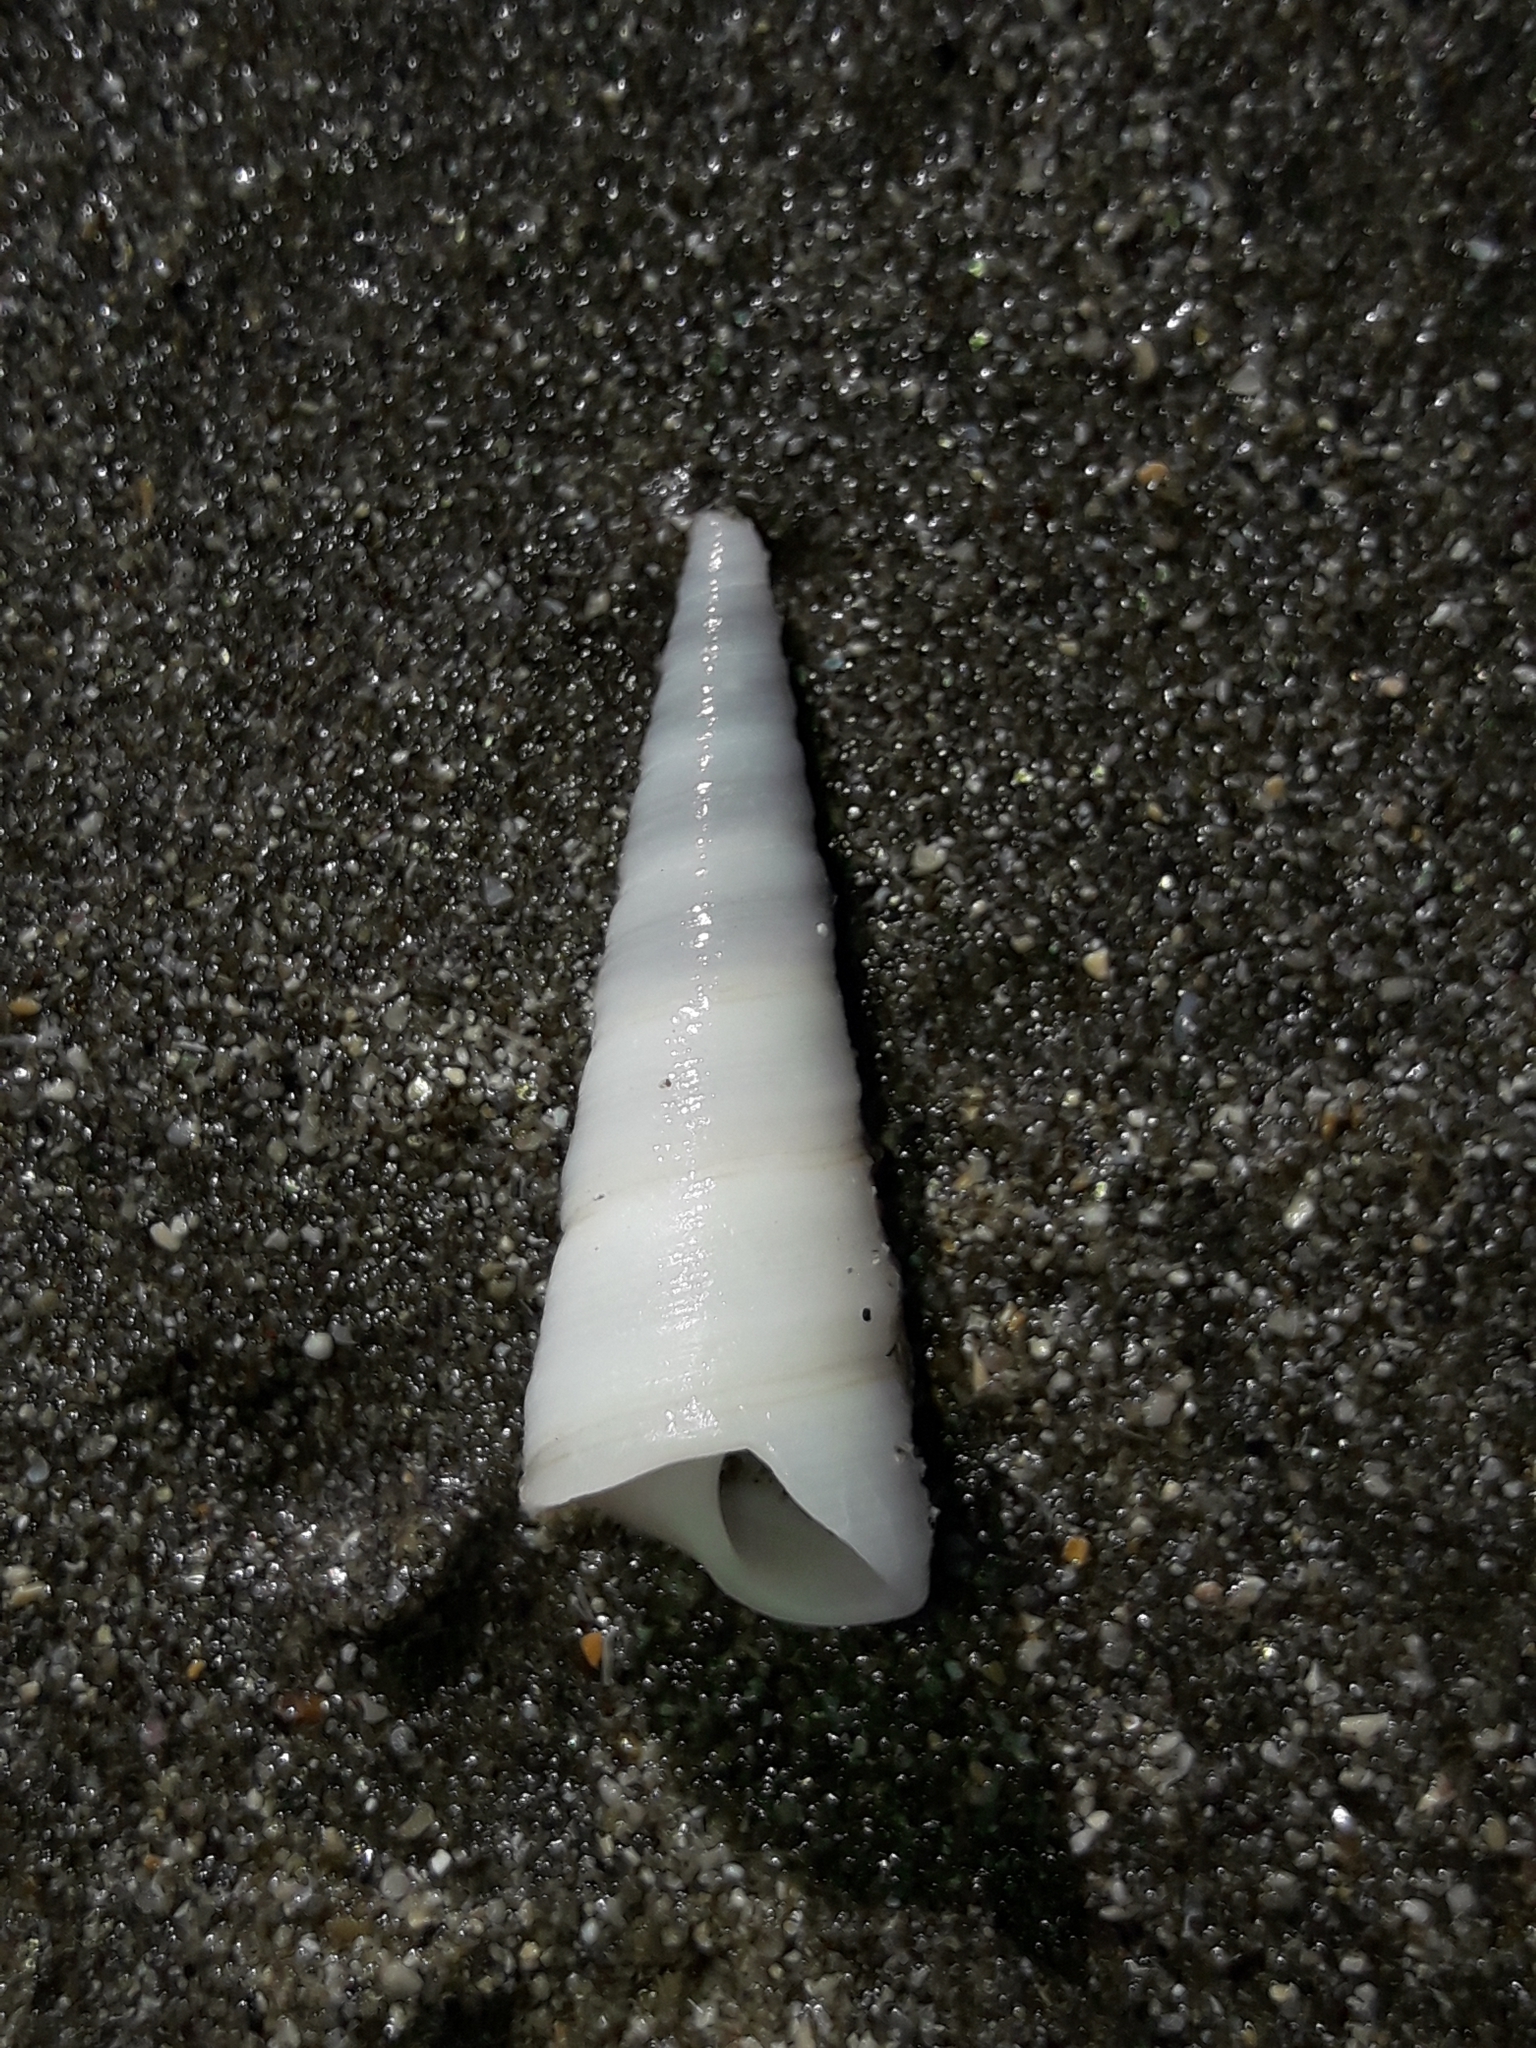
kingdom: Animalia
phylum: Mollusca
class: Gastropoda
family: Turritellidae
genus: Maoricolpus
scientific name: Maoricolpus roseus
